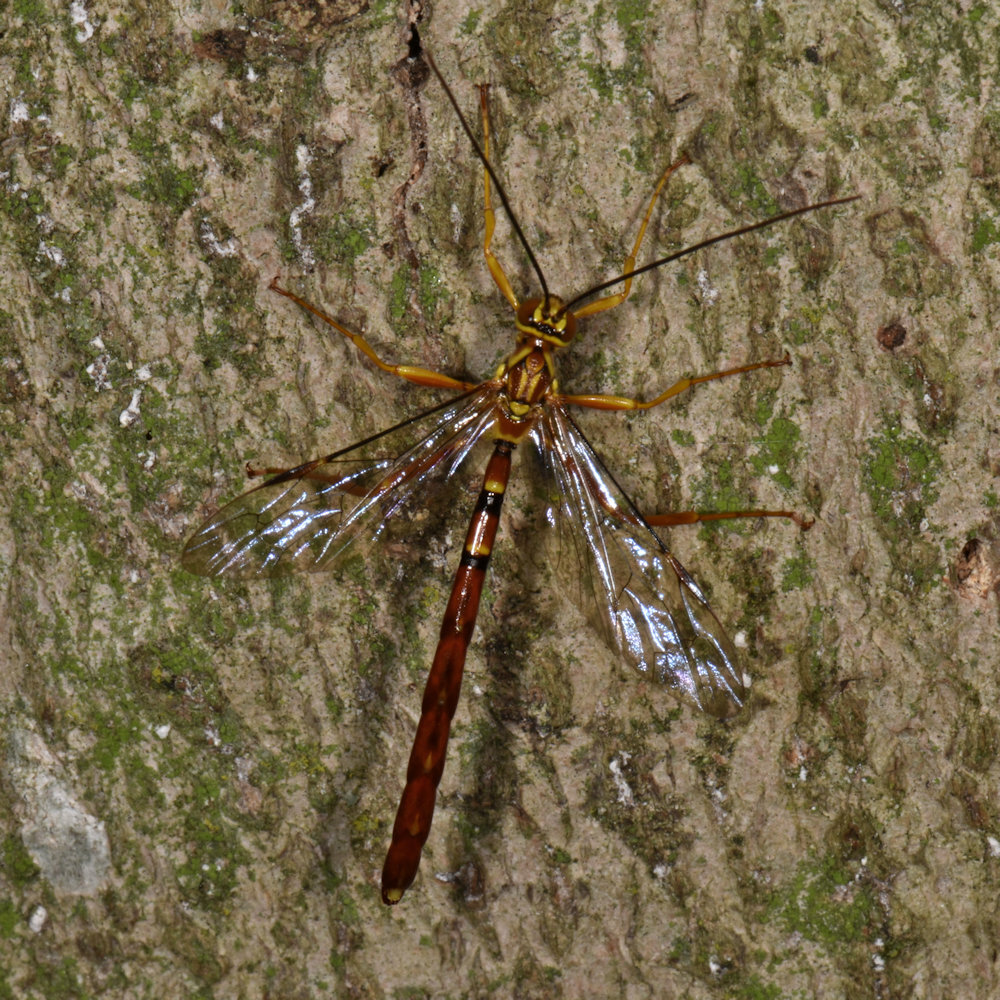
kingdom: Animalia
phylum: Arthropoda
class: Insecta
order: Hymenoptera
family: Ichneumonidae
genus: Megarhyssa
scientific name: Megarhyssa greenei
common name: Greene's giant ichneumonid wasp
